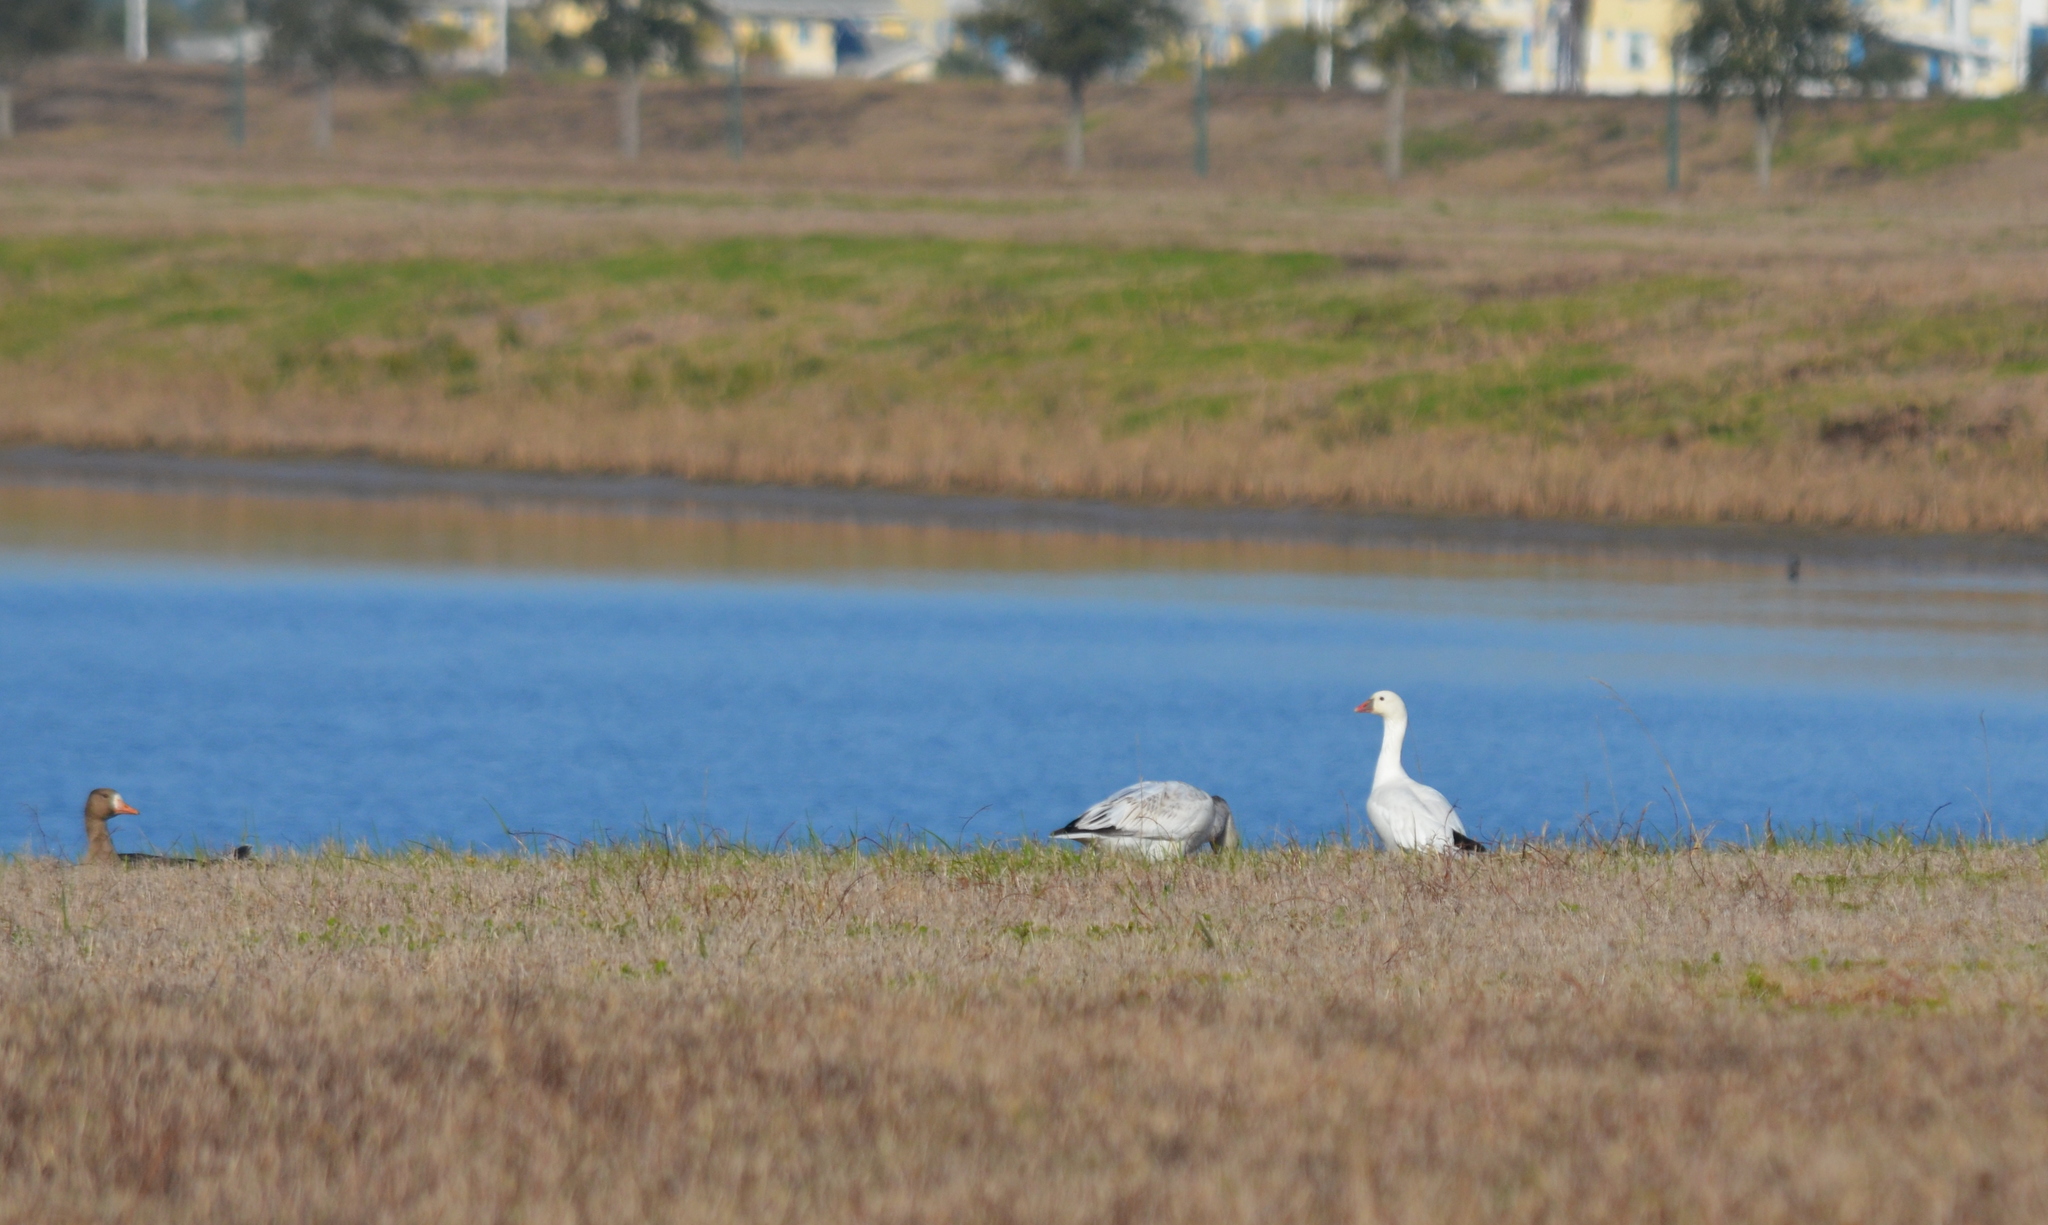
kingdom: Animalia
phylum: Chordata
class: Aves
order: Anseriformes
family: Anatidae
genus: Anser
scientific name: Anser rossii
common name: Ross's goose
